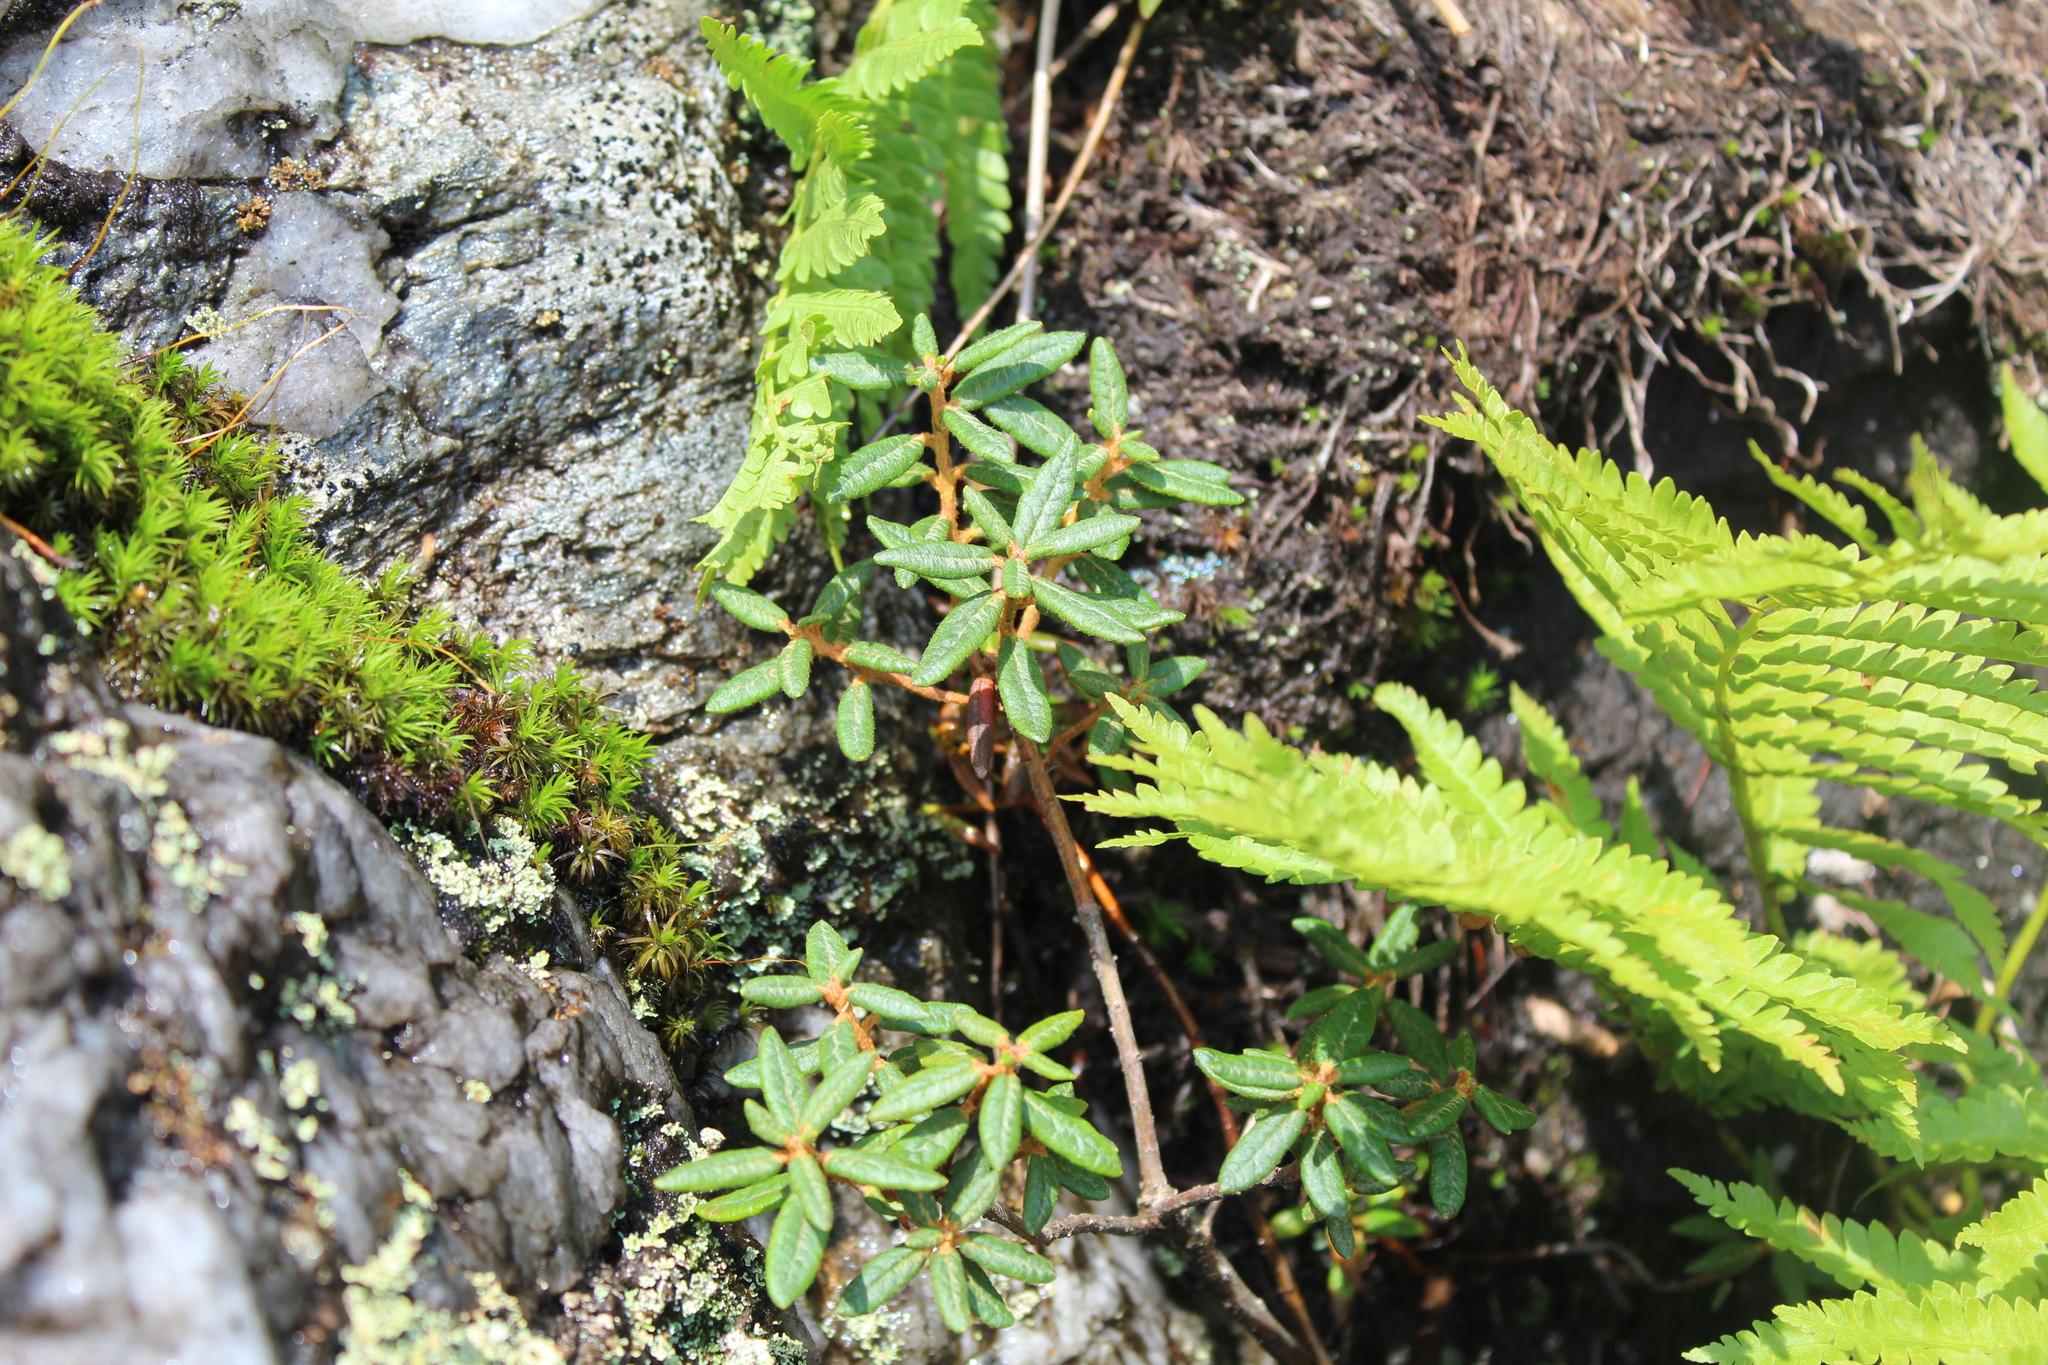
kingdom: Plantae
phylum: Tracheophyta
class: Magnoliopsida
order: Ericales
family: Ericaceae
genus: Rhododendron
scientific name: Rhododendron groenlandicum
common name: Bog labrador tea
